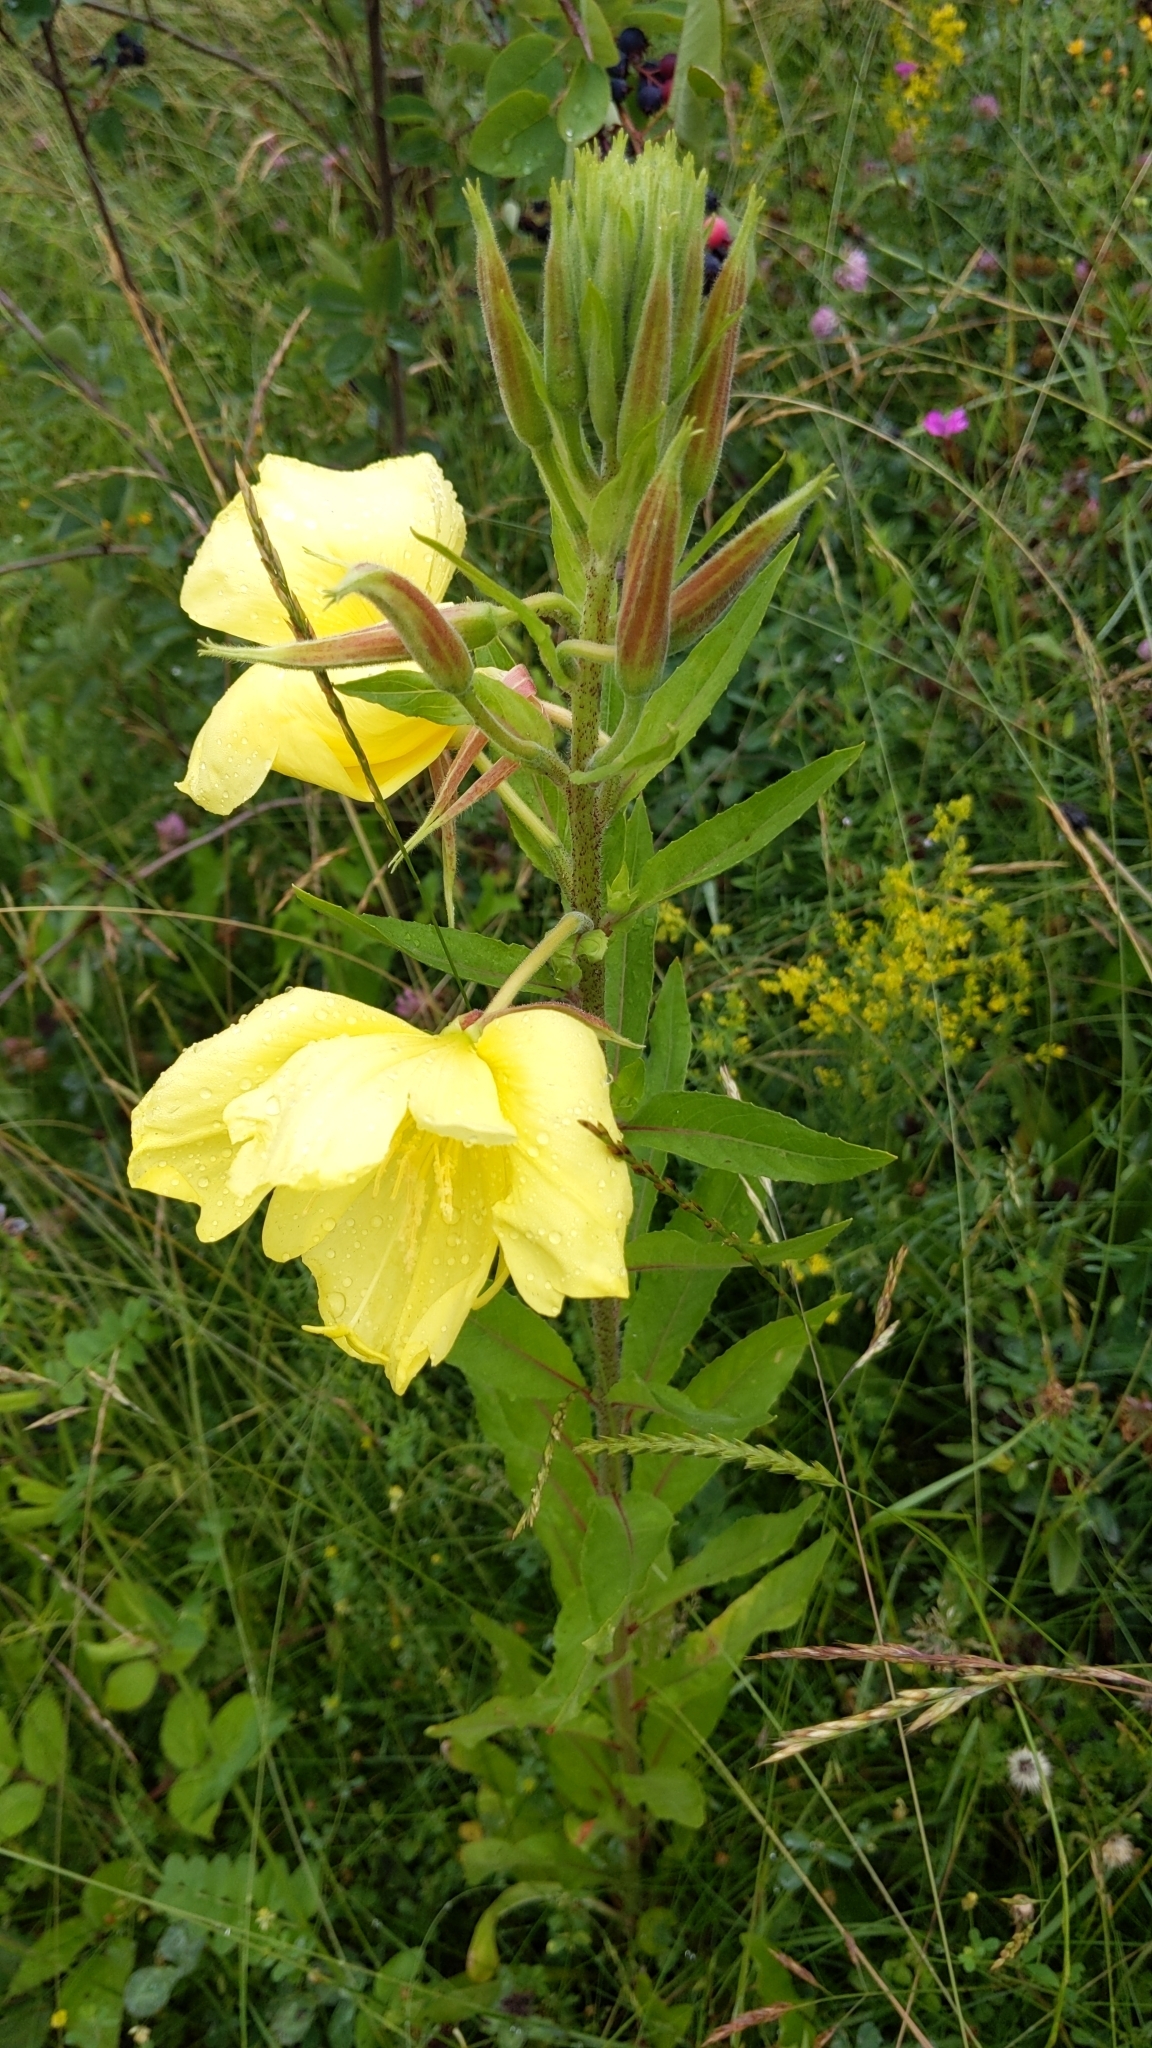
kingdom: Plantae
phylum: Tracheophyta
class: Magnoliopsida
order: Myrtales
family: Onagraceae
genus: Oenothera
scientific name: Oenothera glazioviana
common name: Large-flowered evening-primrose
